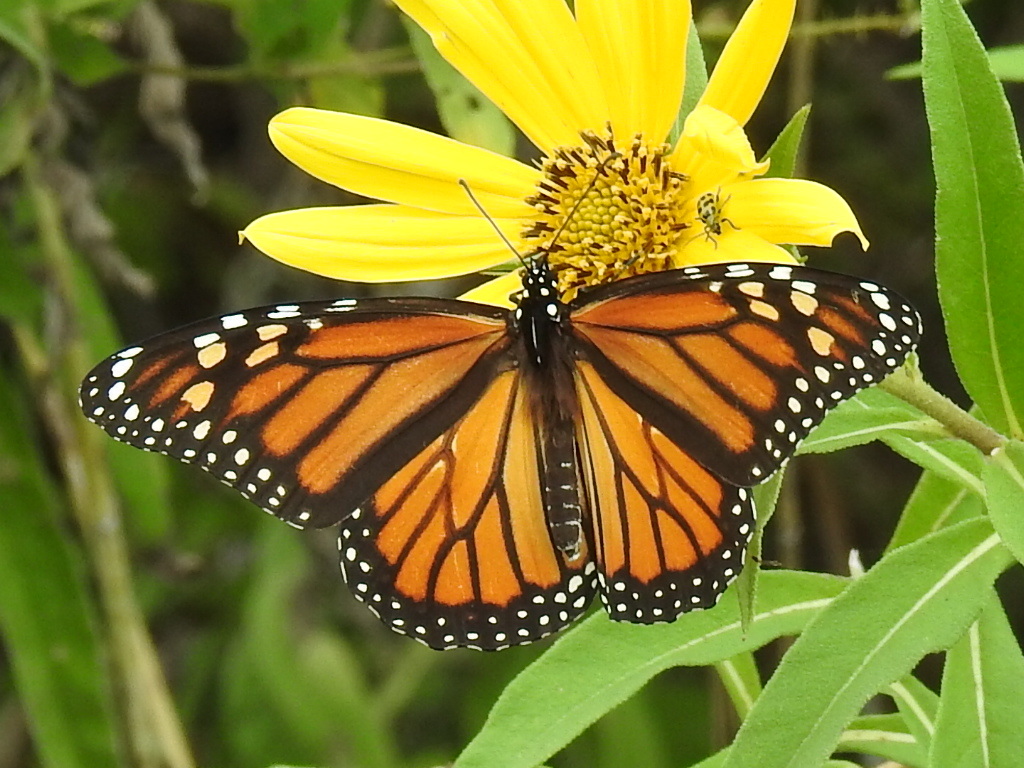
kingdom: Animalia
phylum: Arthropoda
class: Insecta
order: Lepidoptera
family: Nymphalidae
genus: Danaus
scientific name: Danaus plexippus
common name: Monarch
